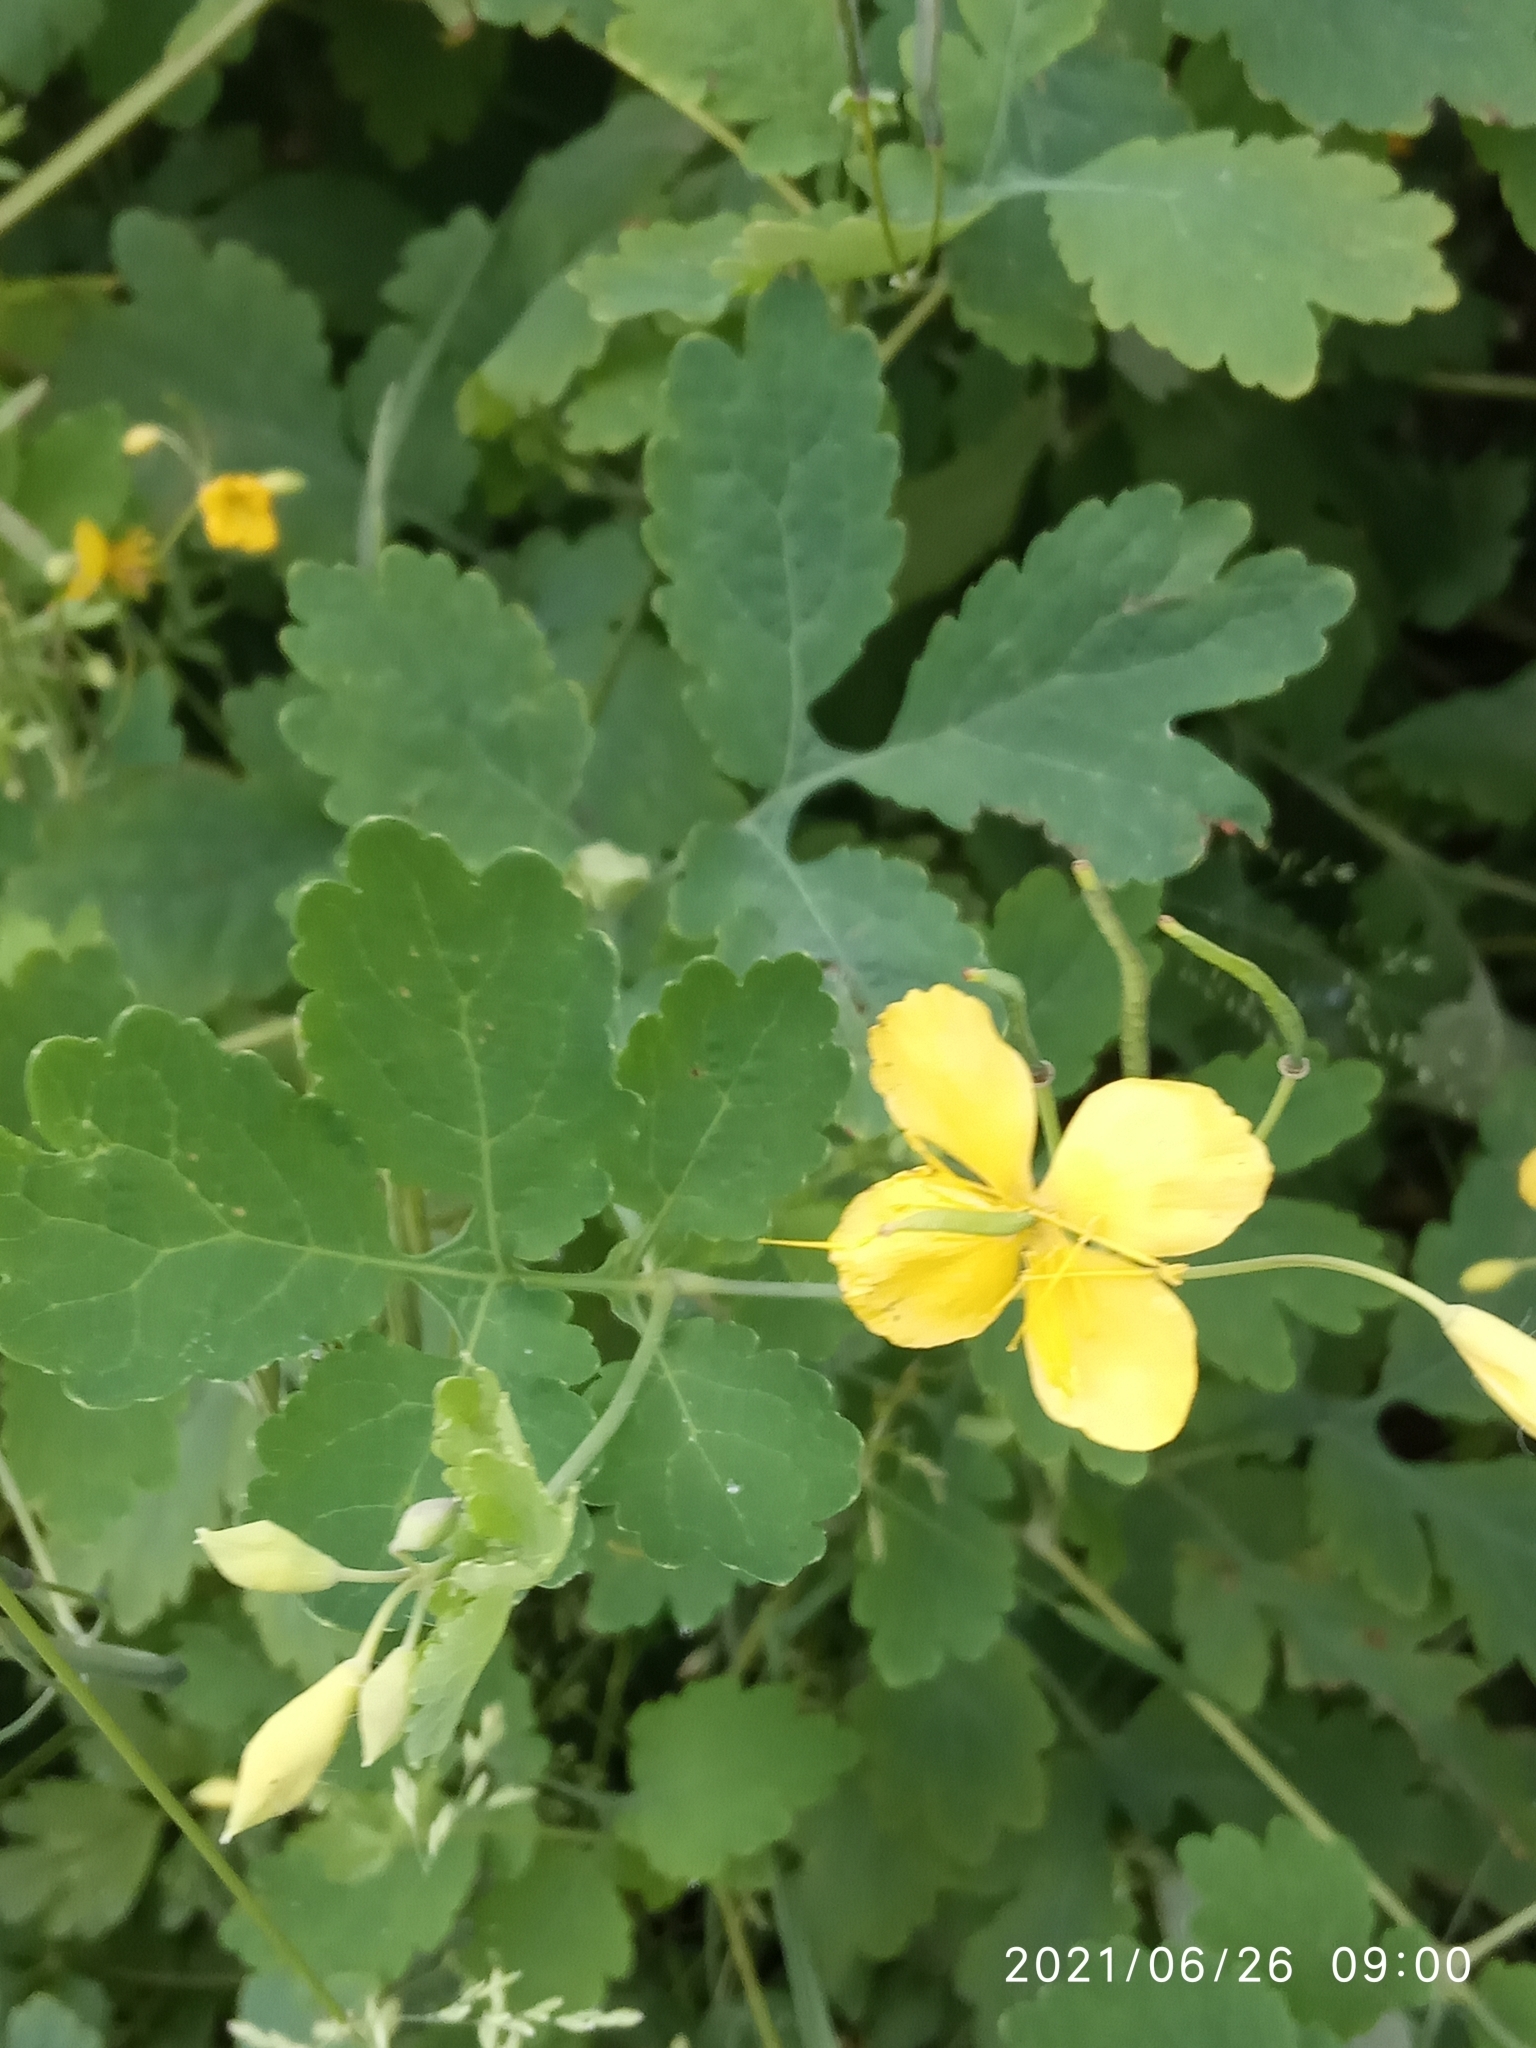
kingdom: Plantae
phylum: Tracheophyta
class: Magnoliopsida
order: Ranunculales
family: Papaveraceae
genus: Chelidonium
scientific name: Chelidonium majus
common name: Greater celandine
